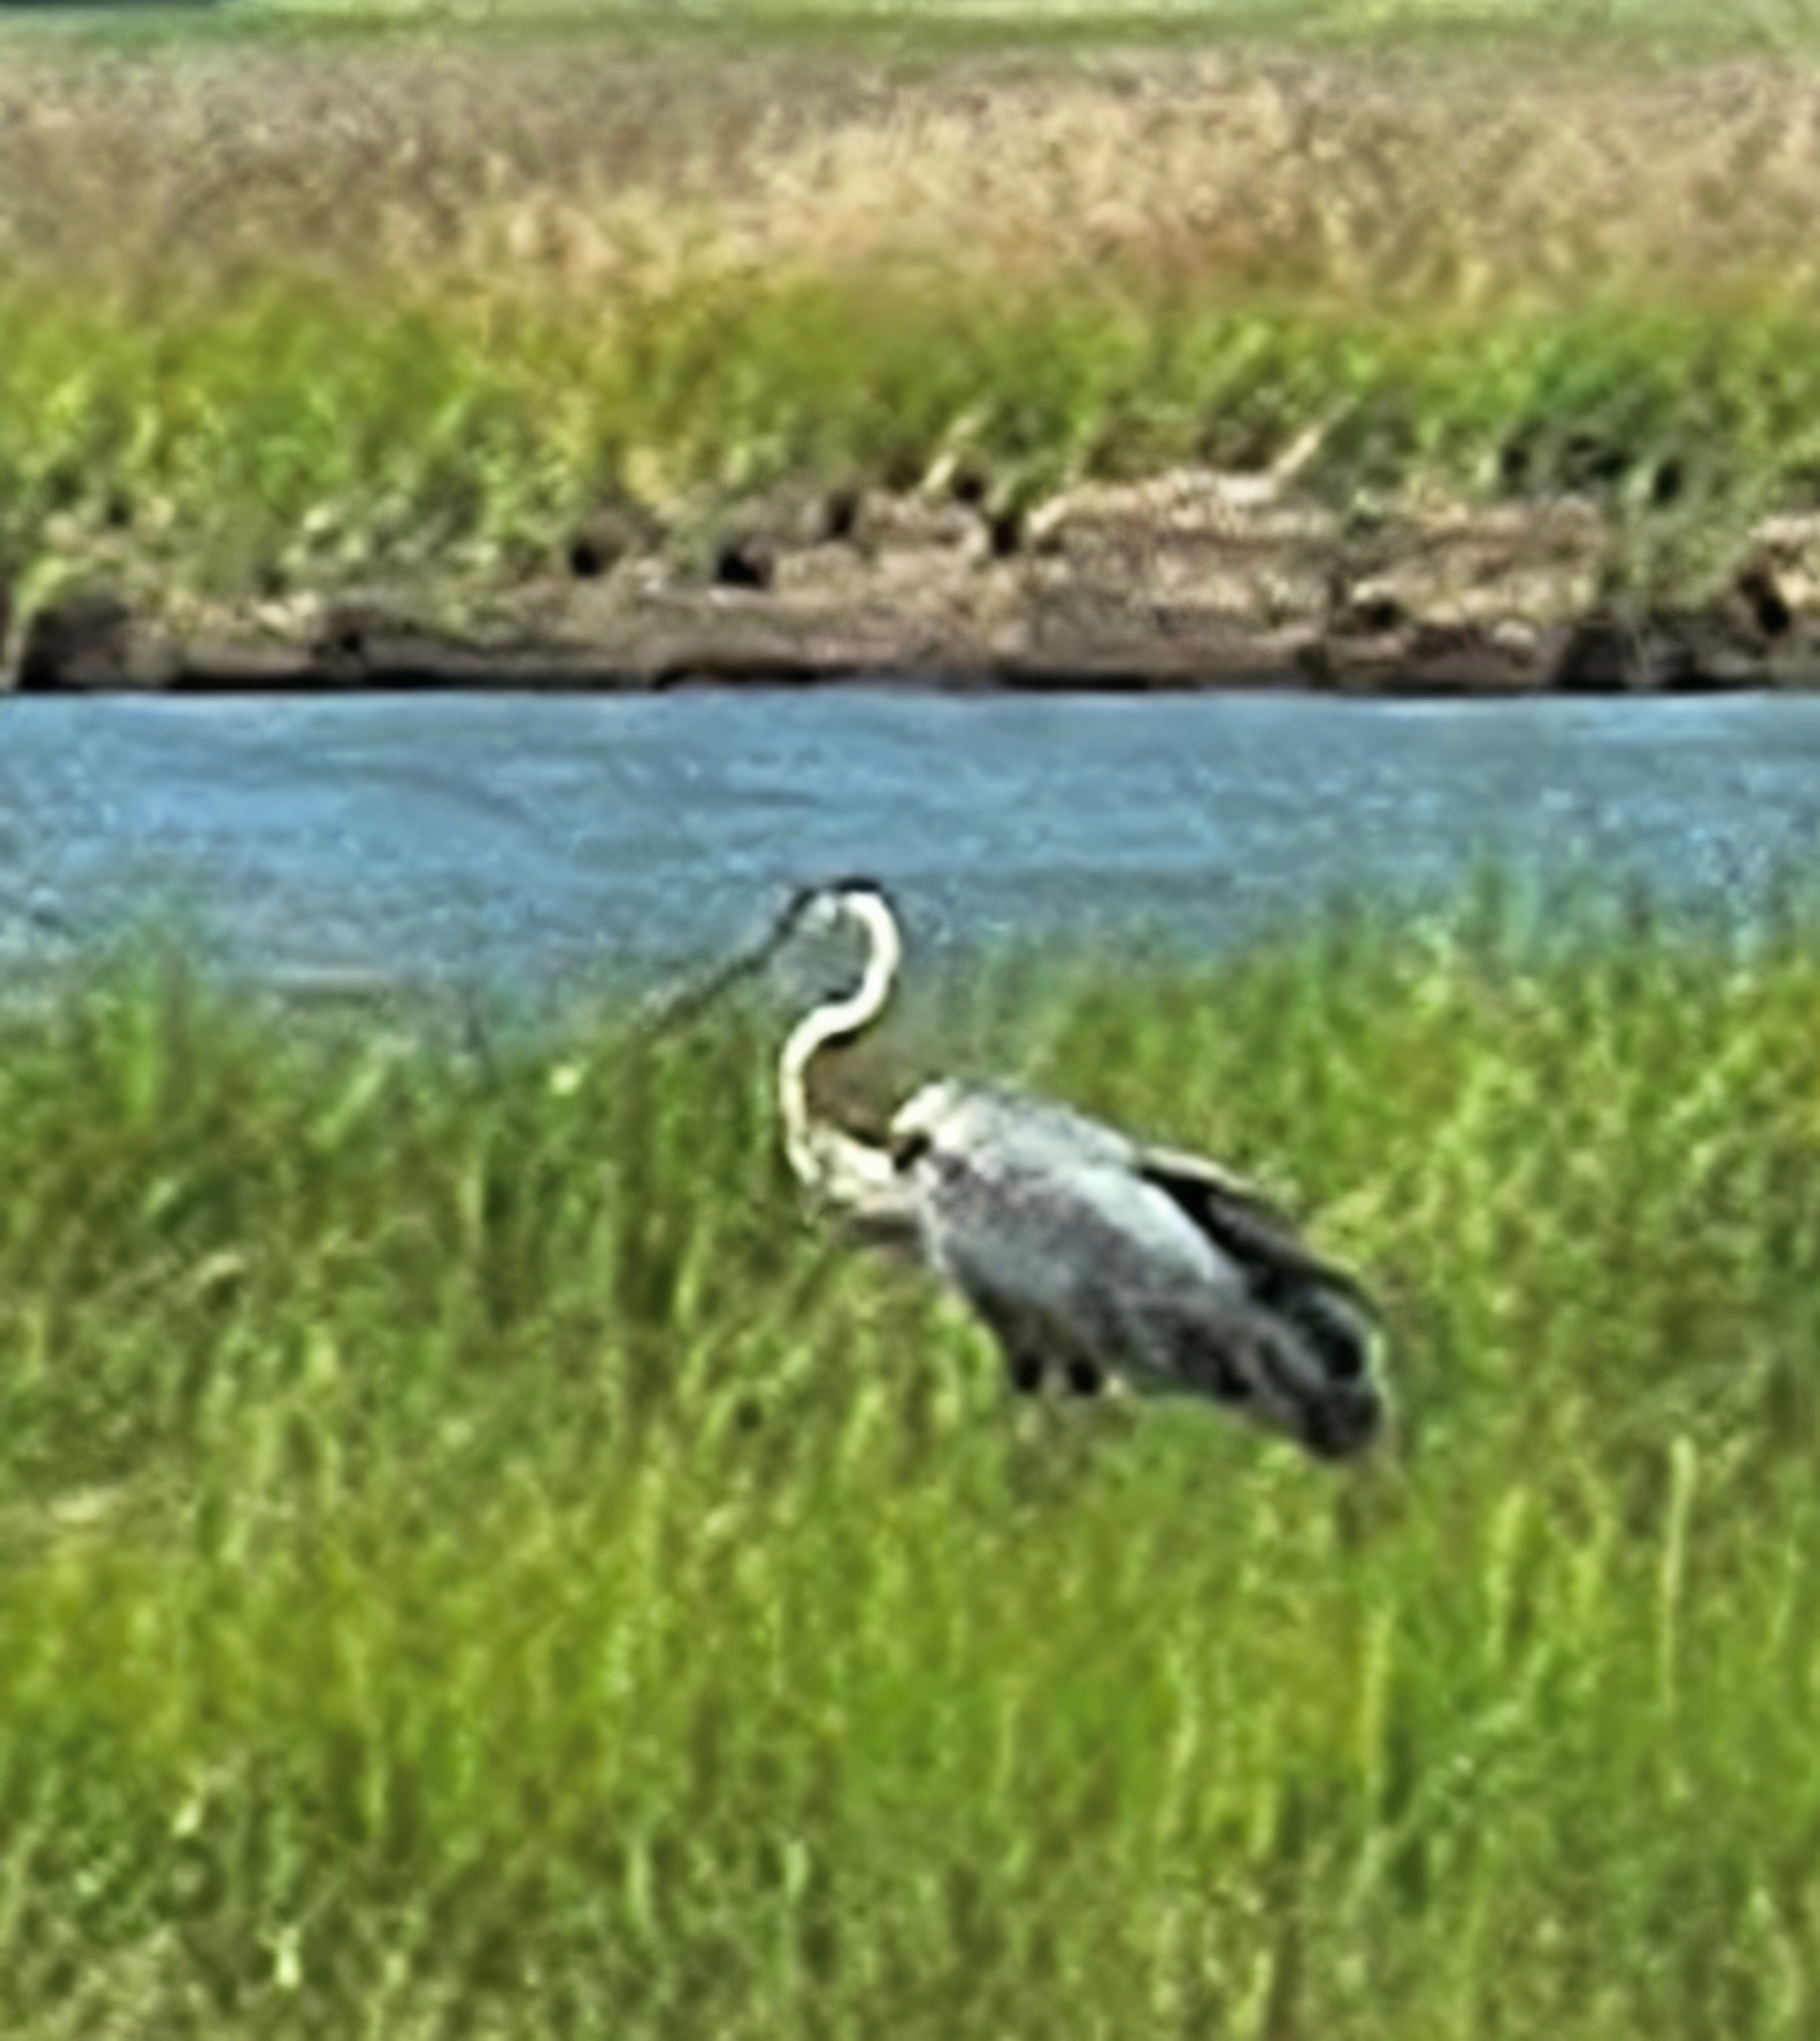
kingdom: Animalia
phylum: Chordata
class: Aves
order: Pelecaniformes
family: Ardeidae
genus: Ardea
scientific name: Ardea herodias
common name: Great blue heron
